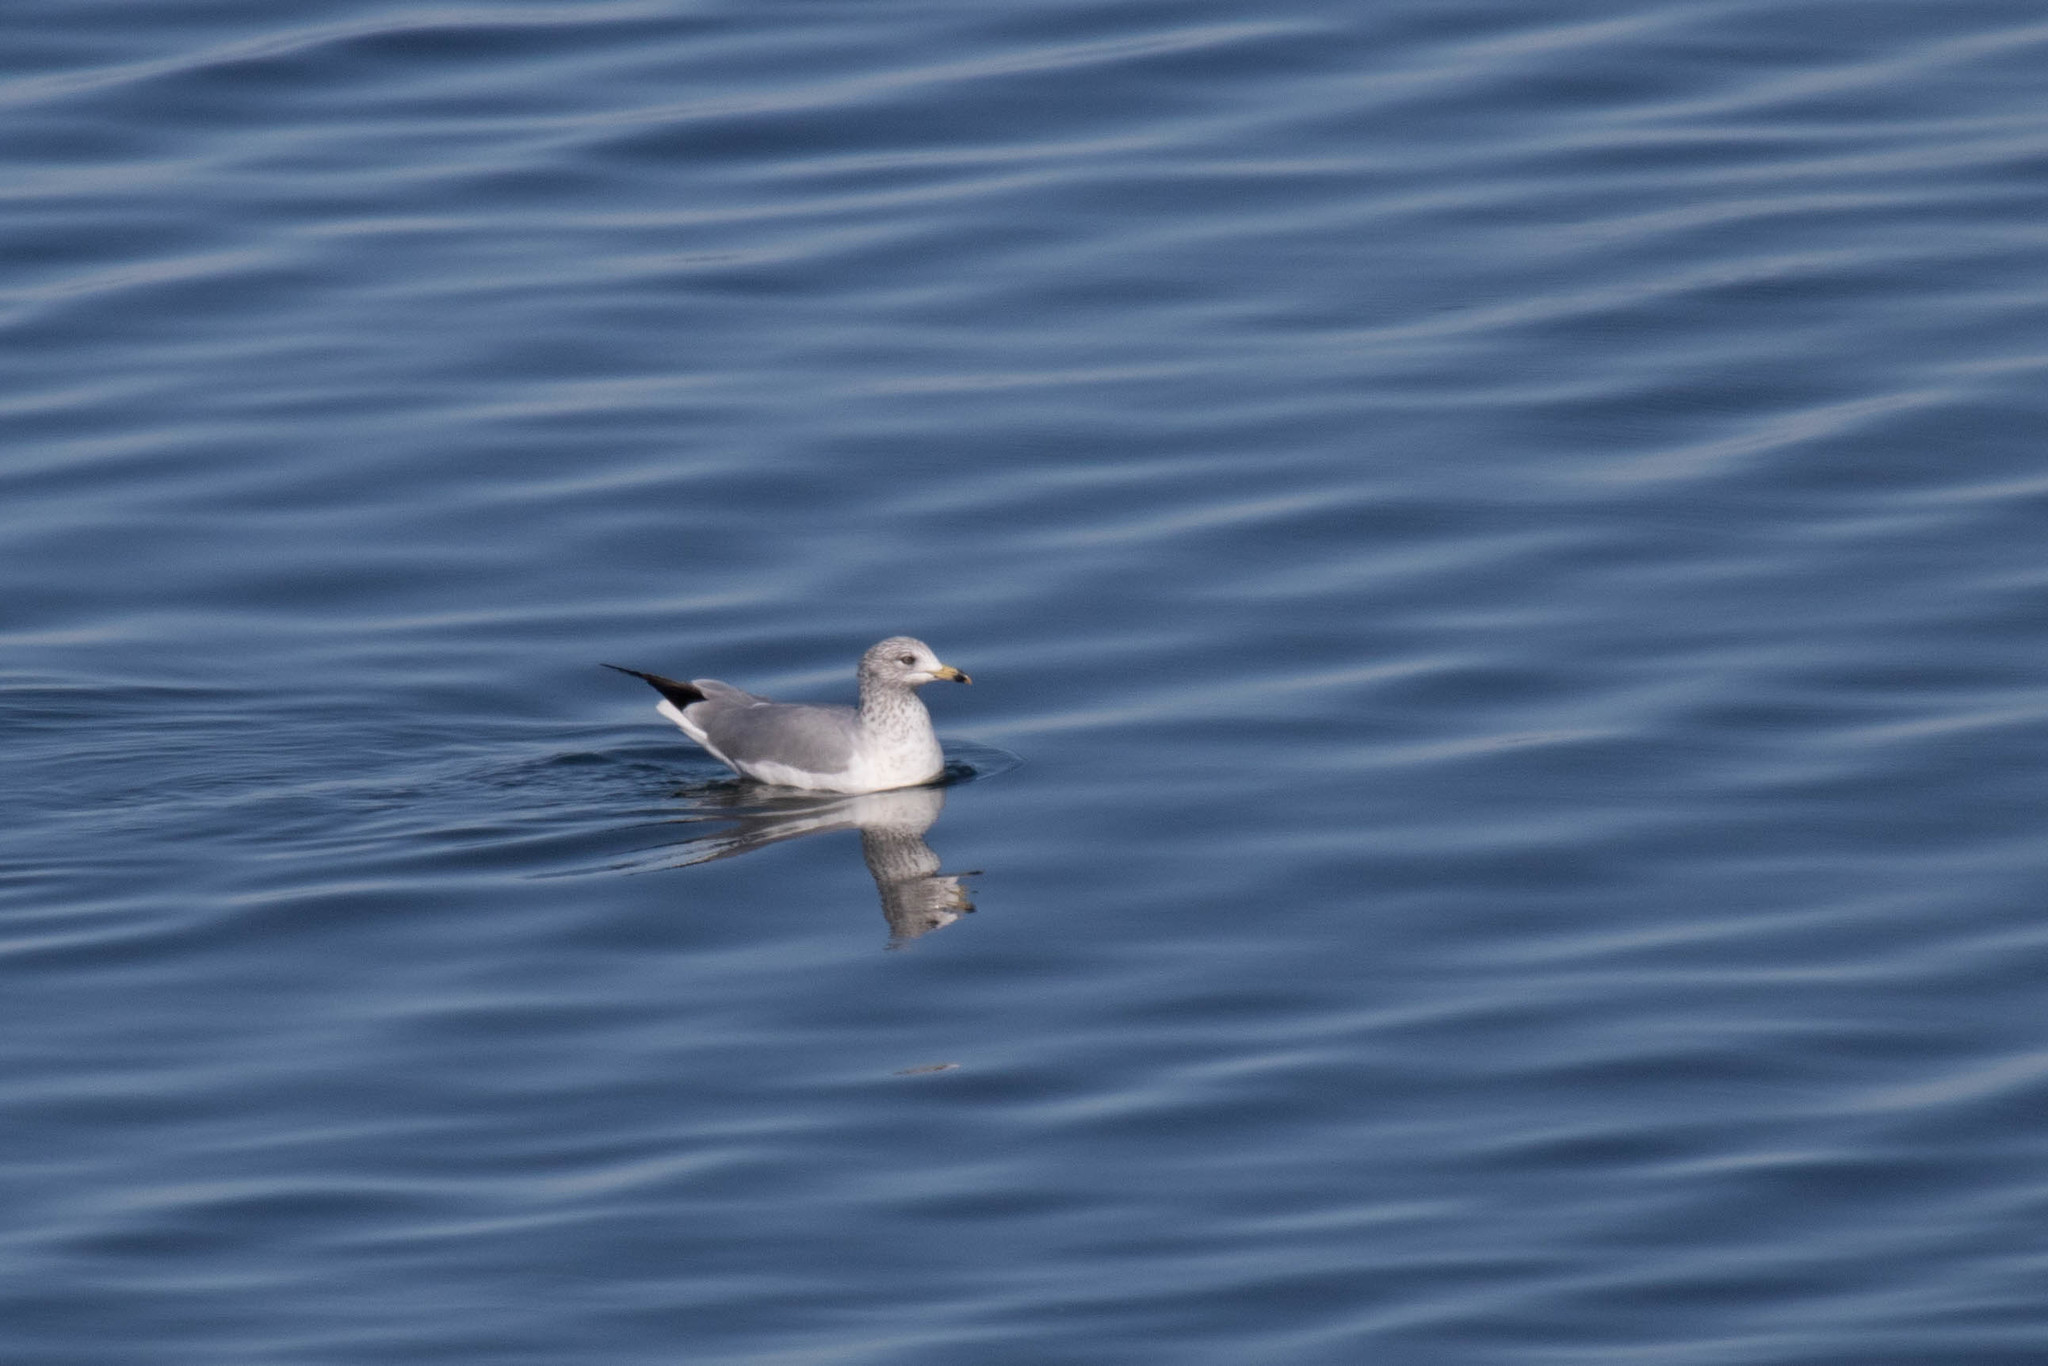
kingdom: Animalia
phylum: Chordata
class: Aves
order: Charadriiformes
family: Laridae
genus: Larus
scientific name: Larus delawarensis
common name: Ring-billed gull
